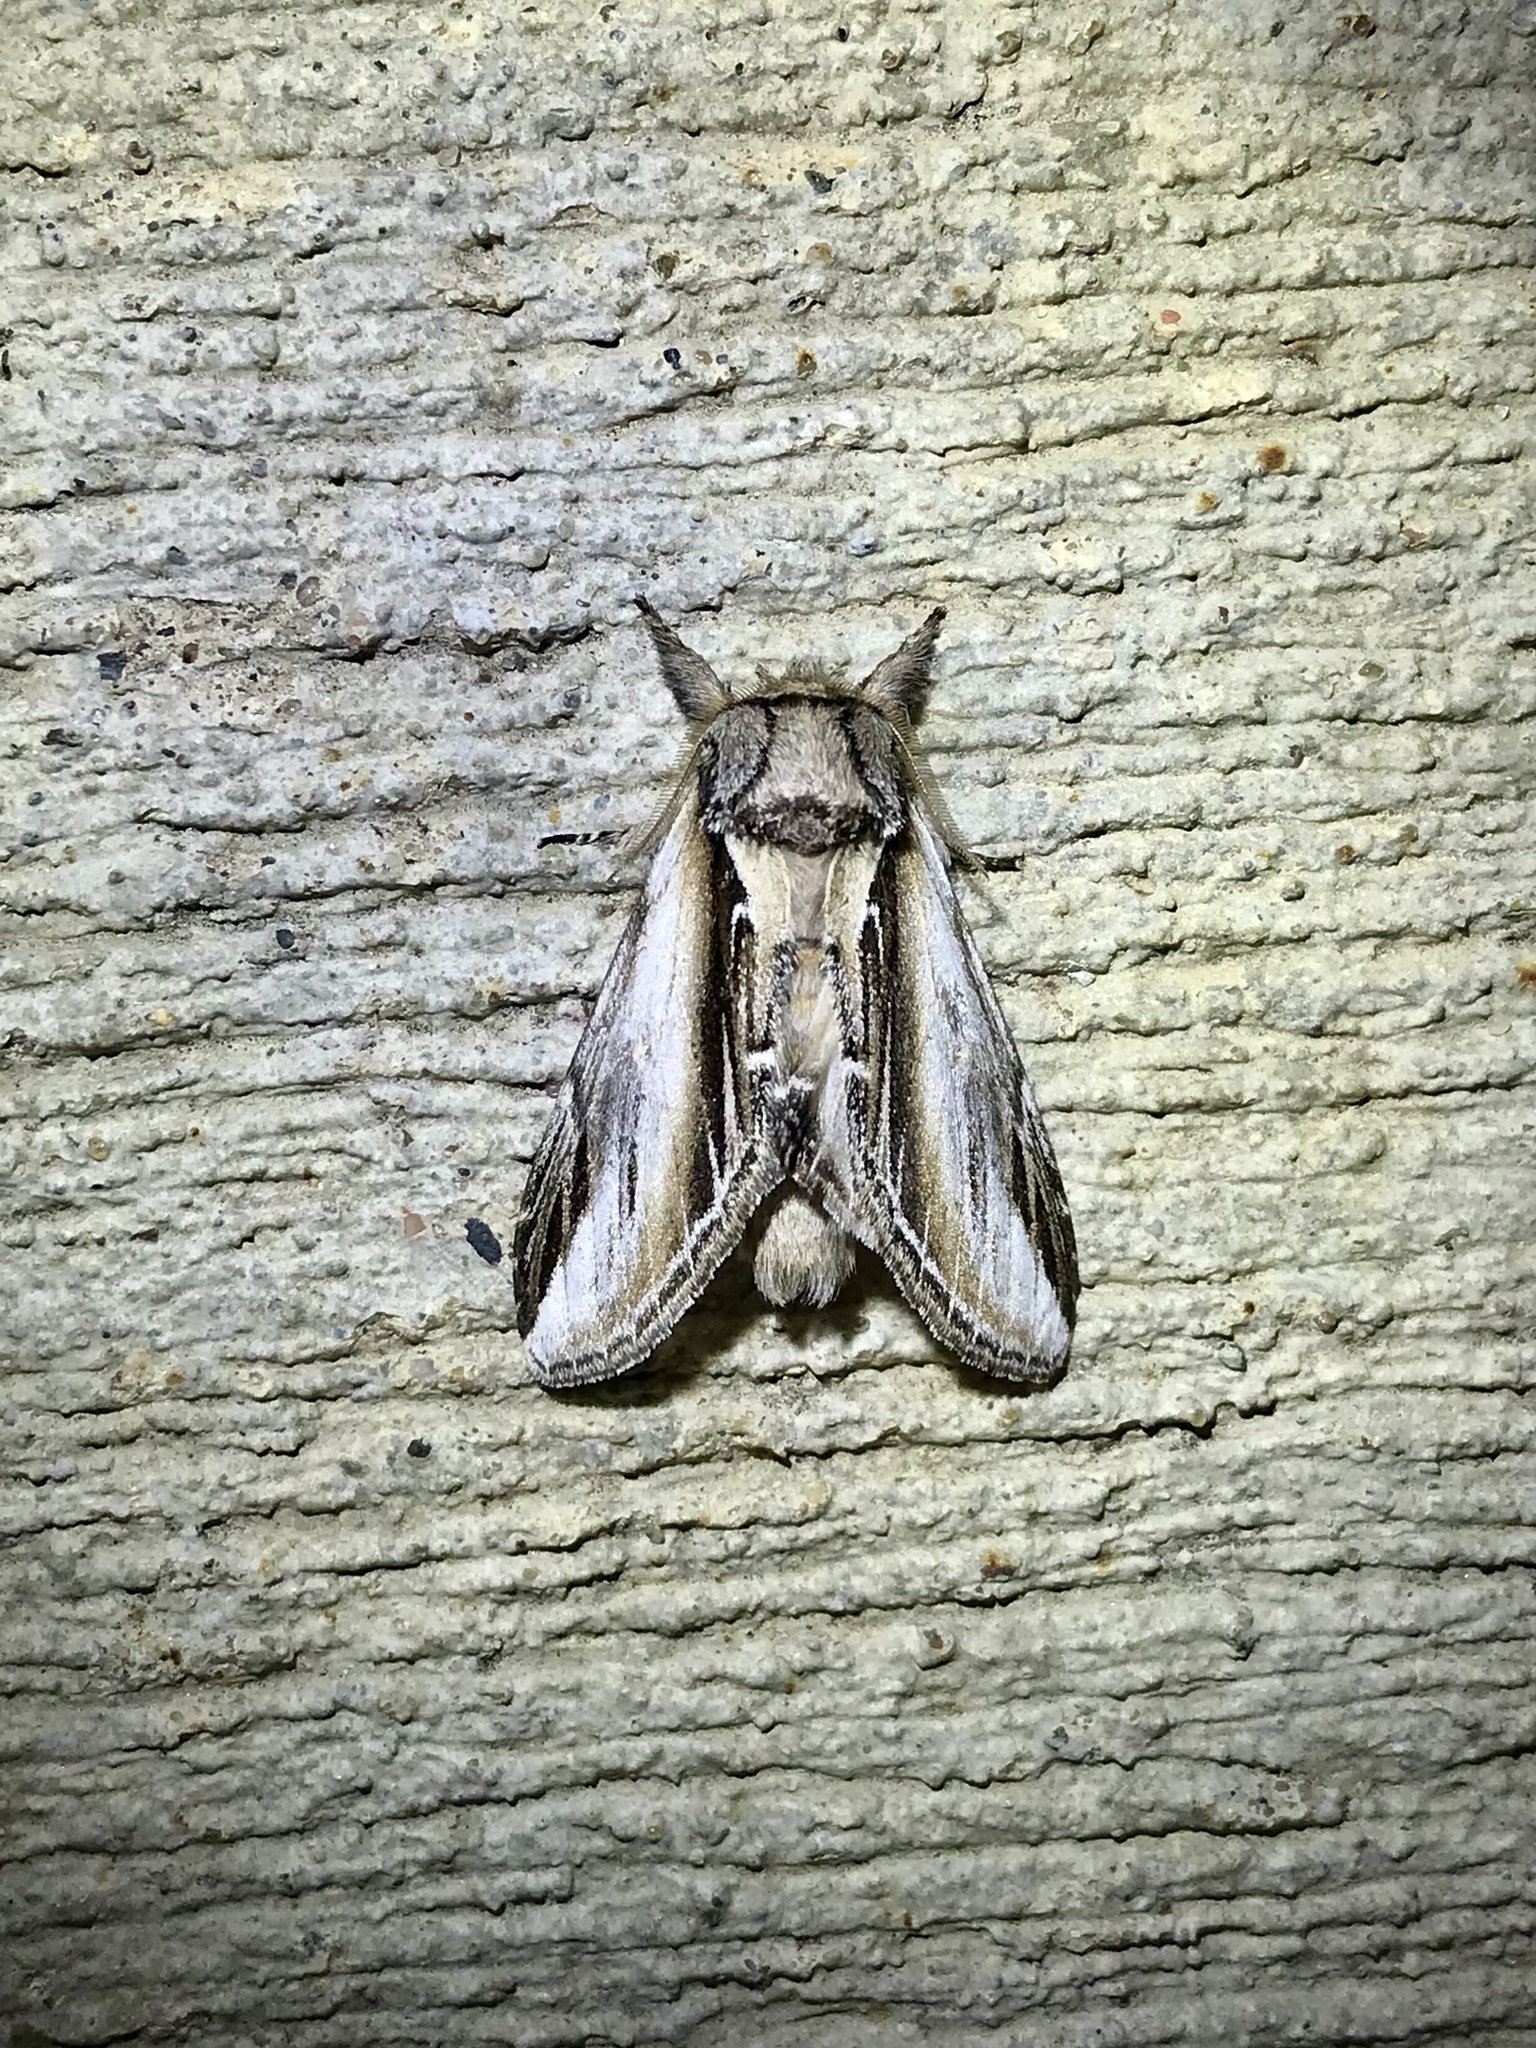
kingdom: Animalia
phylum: Arthropoda
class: Insecta
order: Lepidoptera
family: Notodontidae
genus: Pheosia
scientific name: Pheosia rimosa
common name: Black-rimmed prominent
